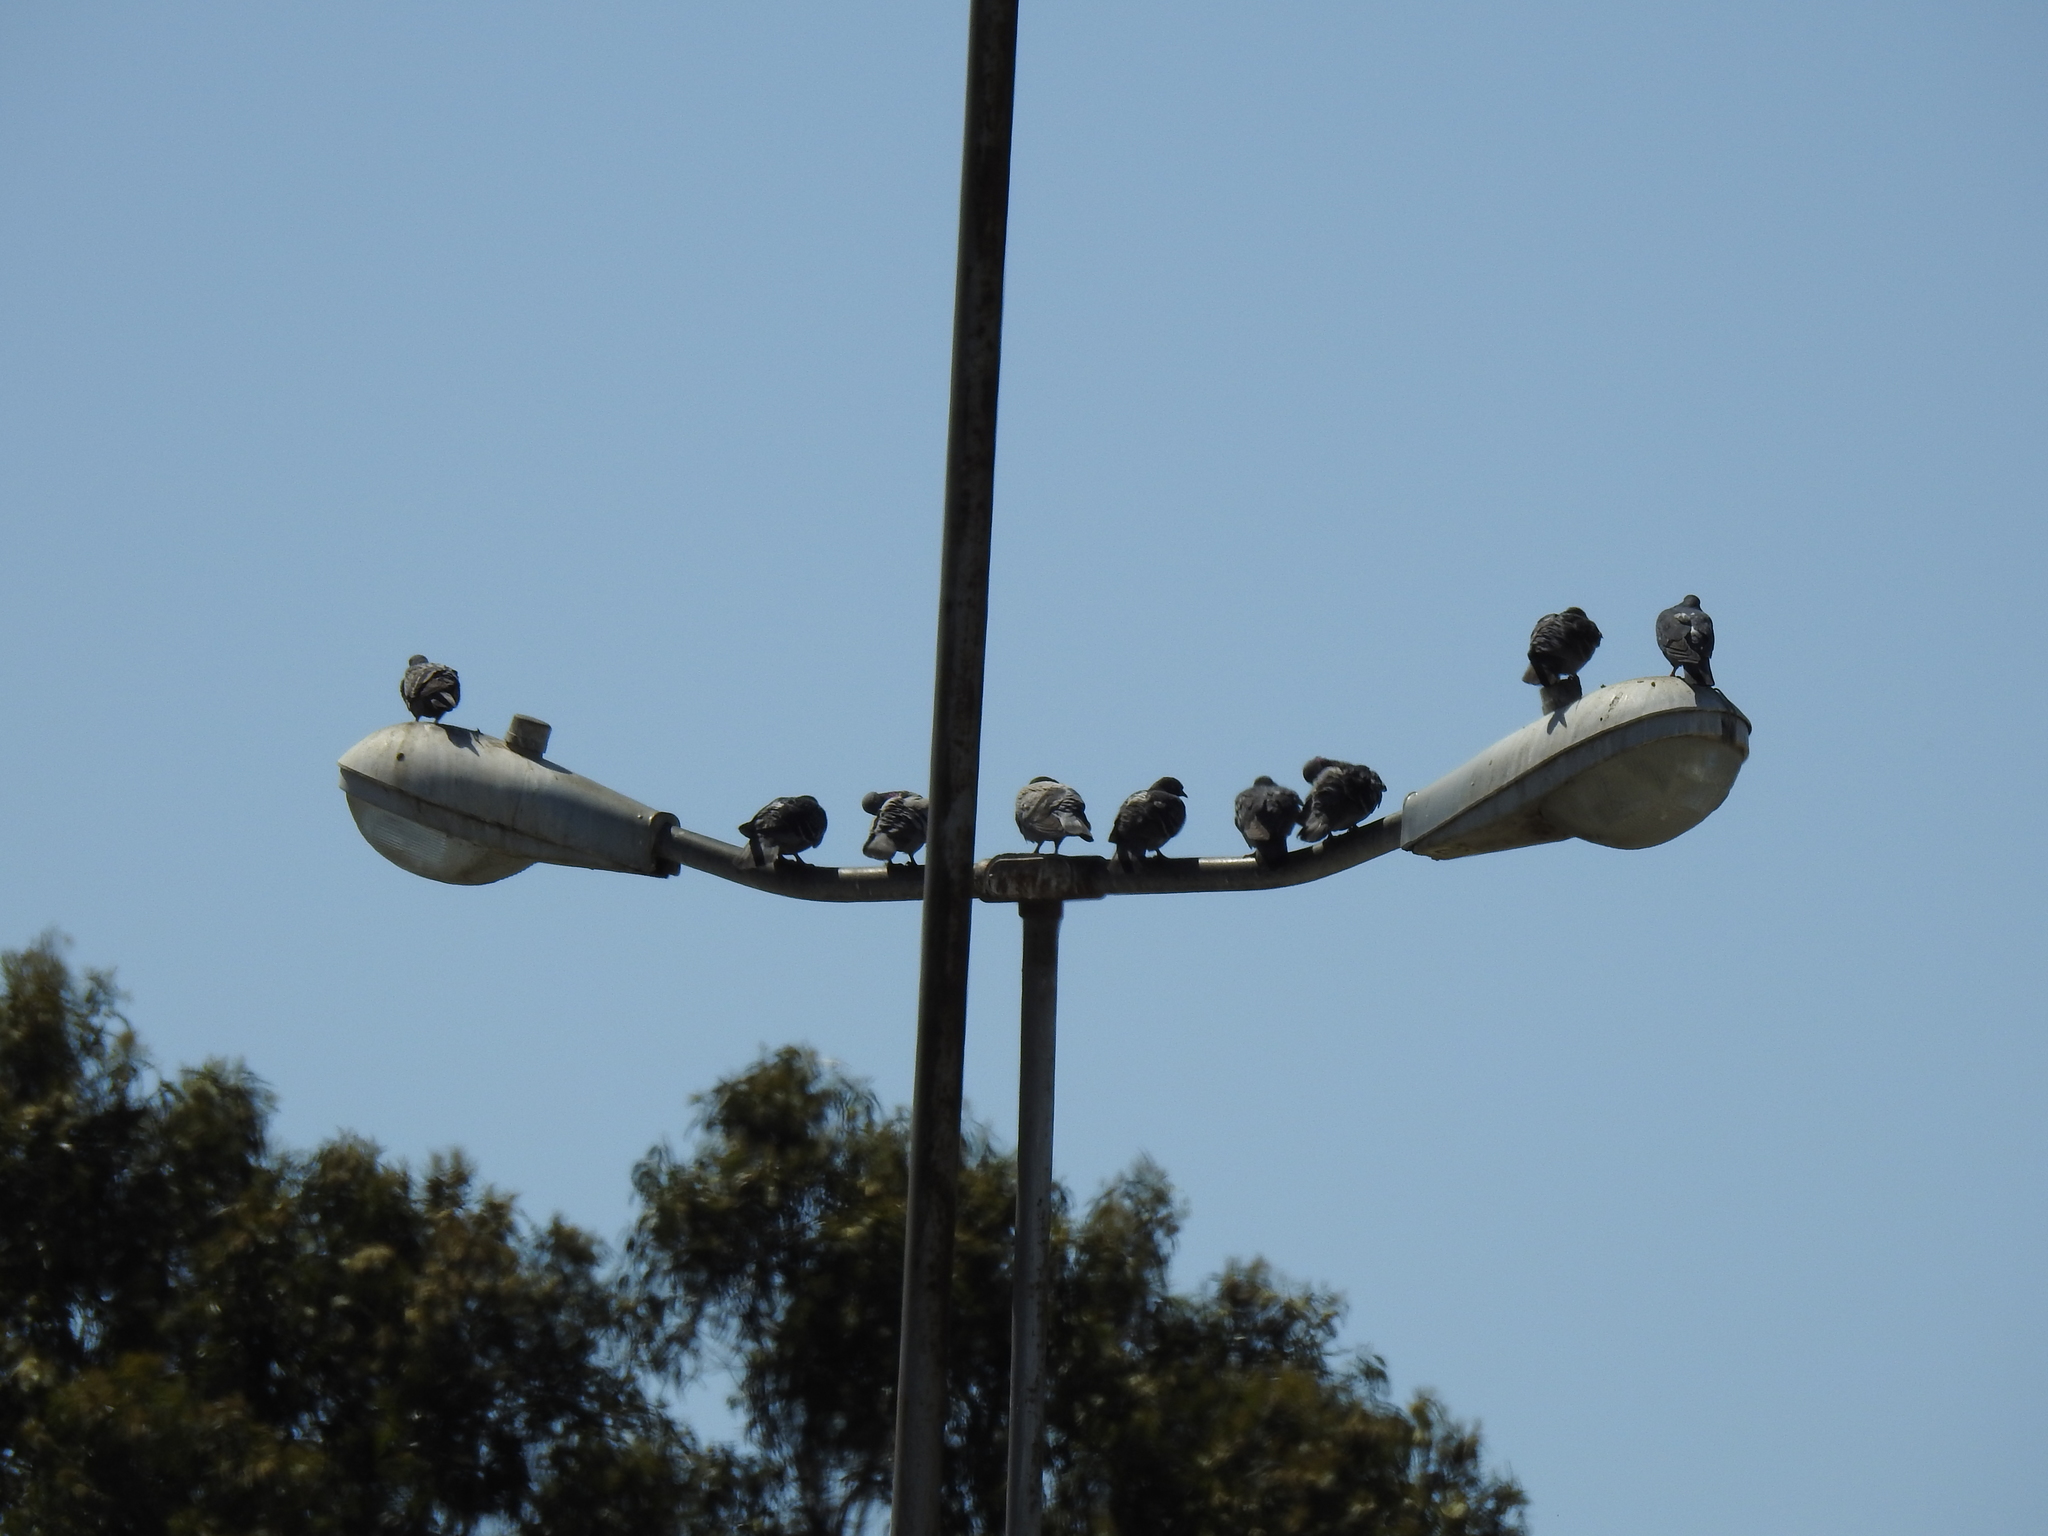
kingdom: Animalia
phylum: Chordata
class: Aves
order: Columbiformes
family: Columbidae
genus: Columba
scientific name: Columba livia
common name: Rock pigeon
